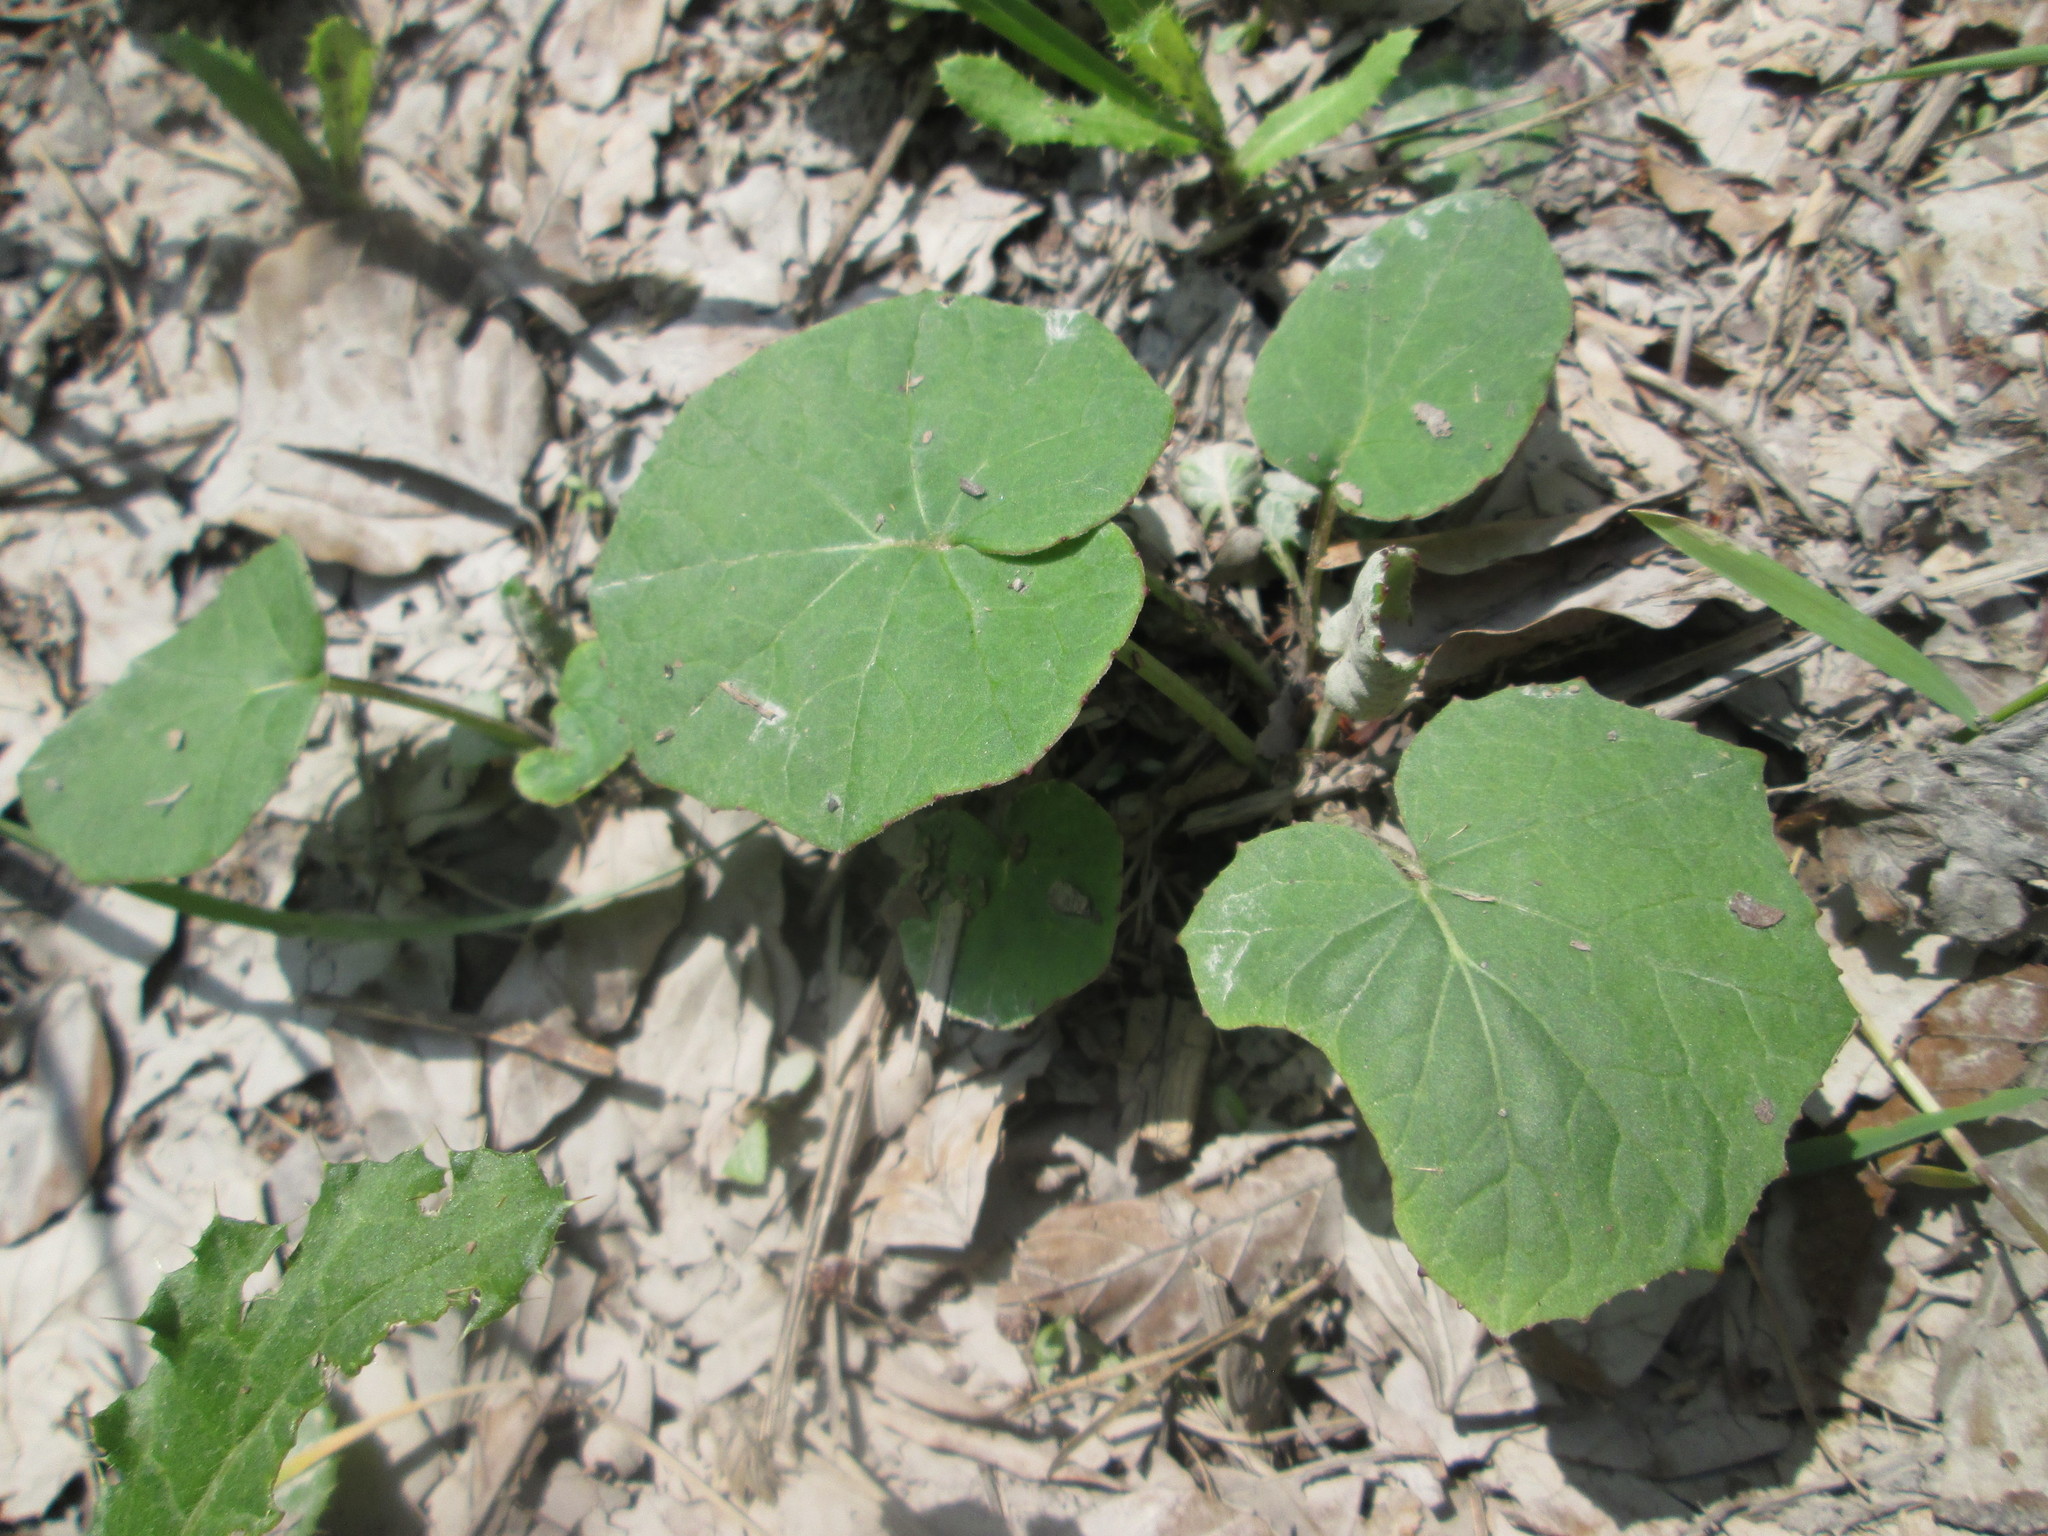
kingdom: Plantae
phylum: Tracheophyta
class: Magnoliopsida
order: Asterales
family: Asteraceae
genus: Tussilago
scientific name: Tussilago farfara
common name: Coltsfoot
